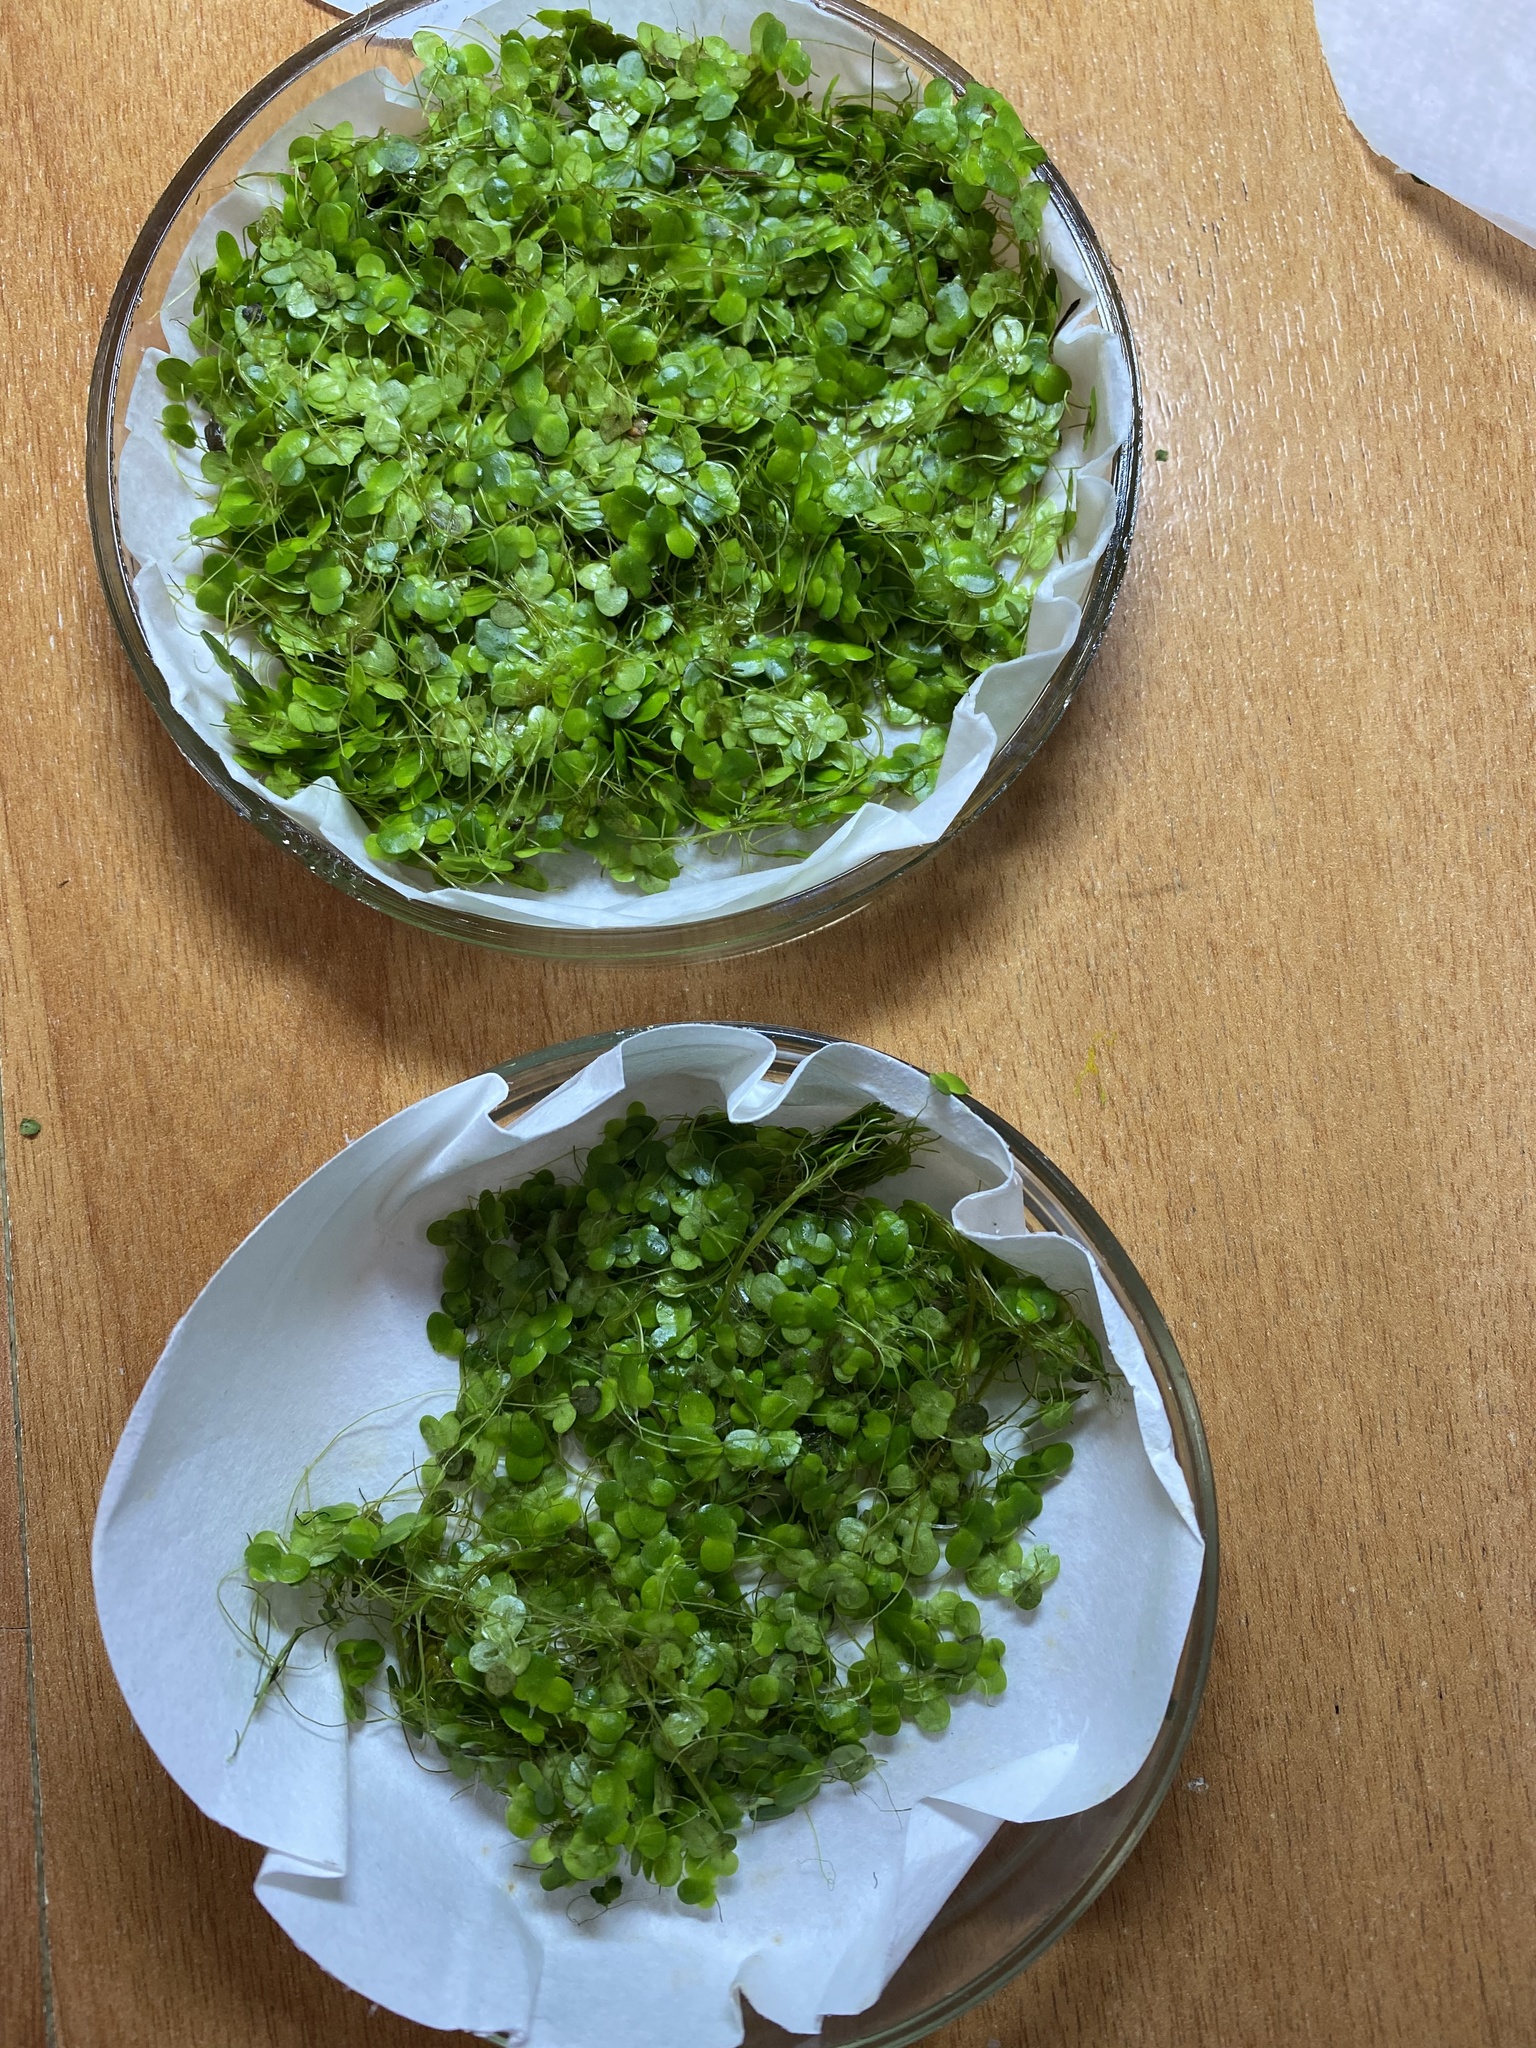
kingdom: Plantae
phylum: Tracheophyta
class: Liliopsida
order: Alismatales
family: Araceae
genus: Lemna
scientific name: Lemna minor
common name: Common duckweed
